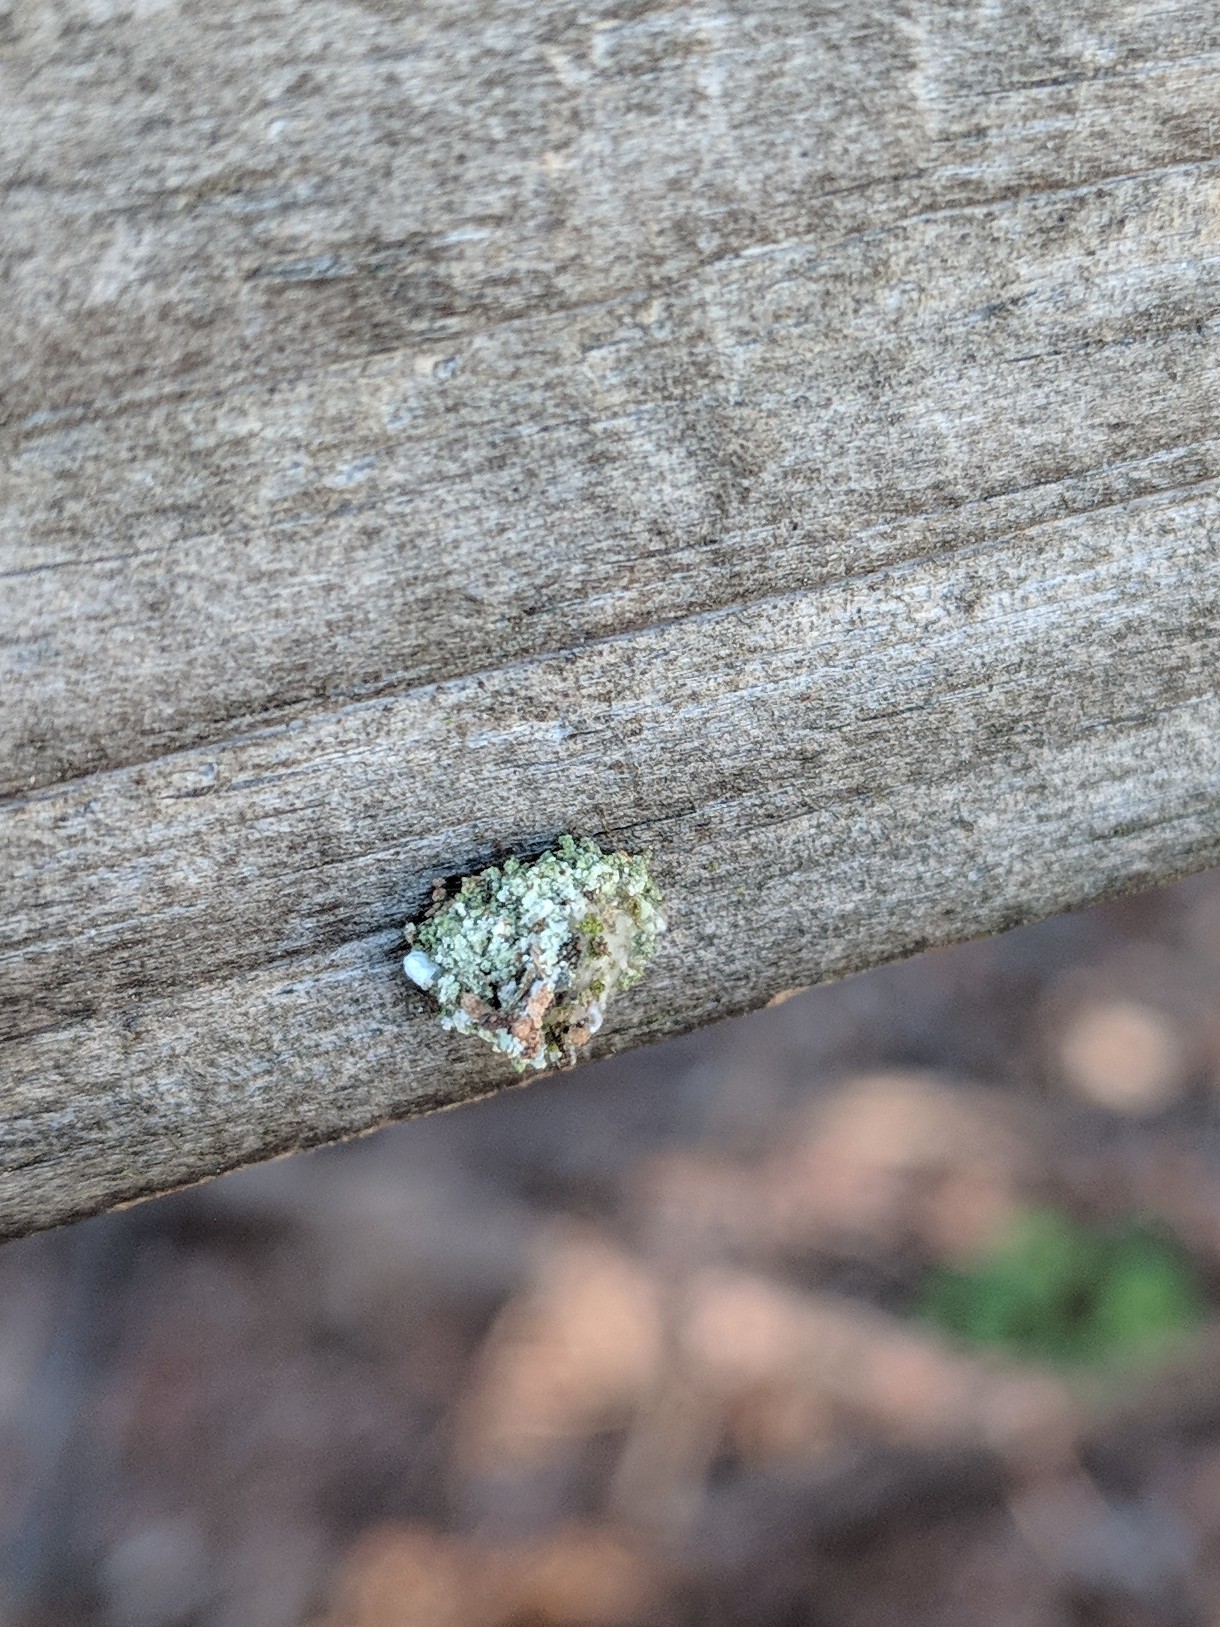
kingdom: Animalia
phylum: Arthropoda
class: Insecta
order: Neuroptera
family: Chrysopidae
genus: Leucochrysa
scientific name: Leucochrysa pavida
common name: Lichen-carrying green lacewing
